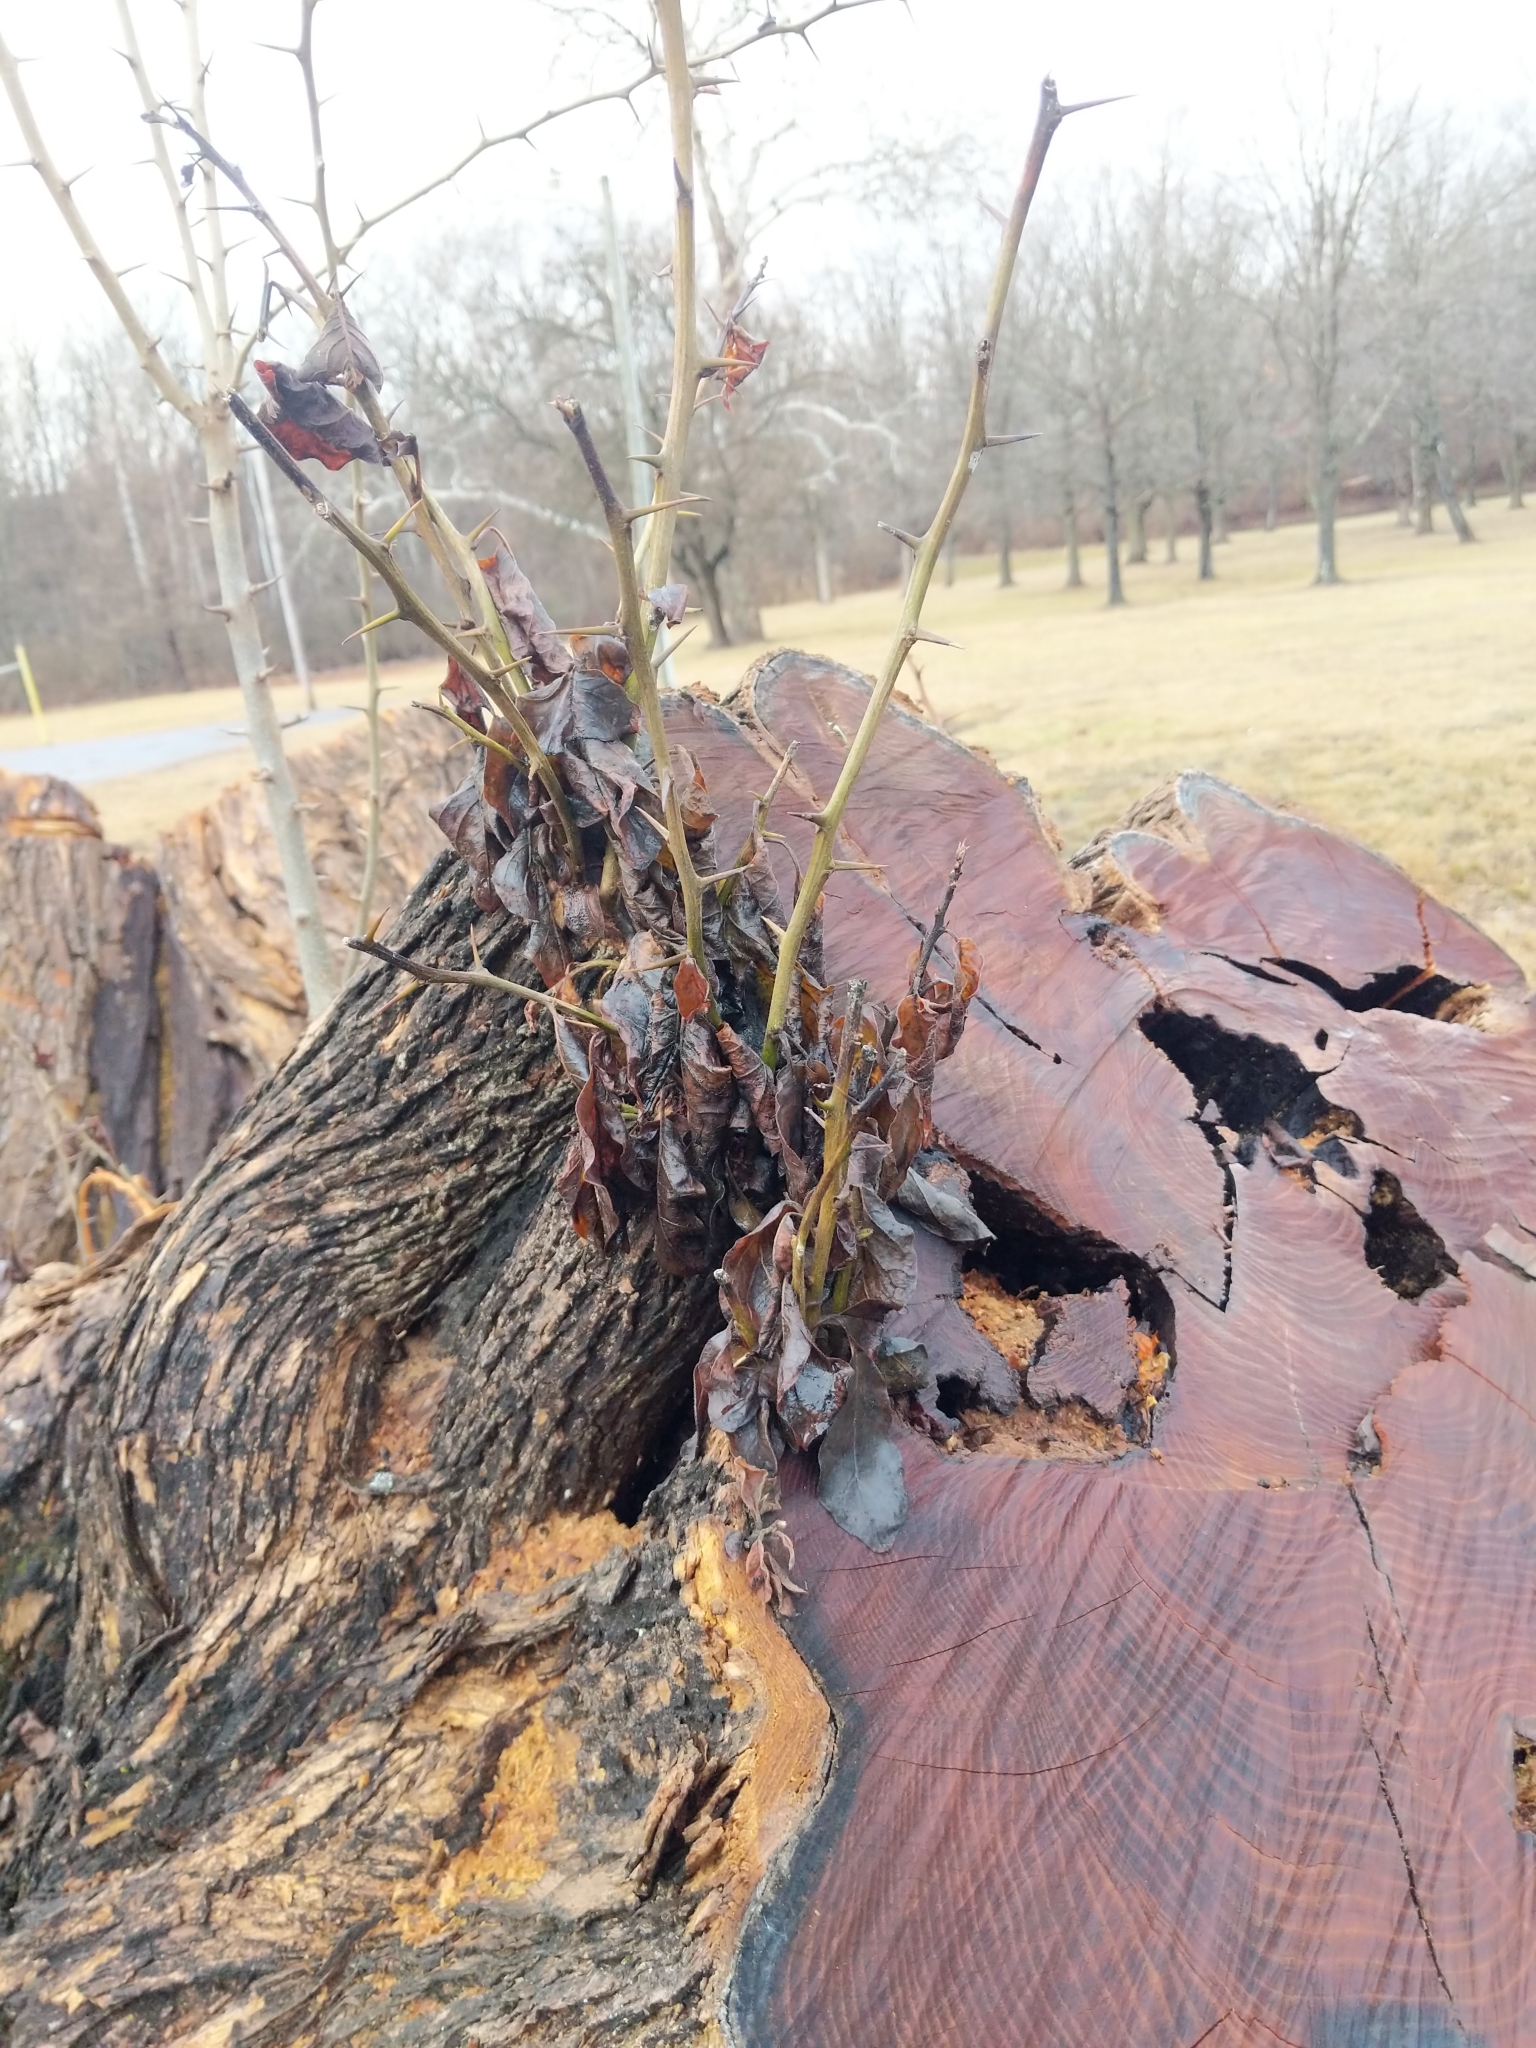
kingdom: Plantae
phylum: Tracheophyta
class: Magnoliopsida
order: Rosales
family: Moraceae
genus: Maclura
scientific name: Maclura pomifera
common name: Osage-orange
